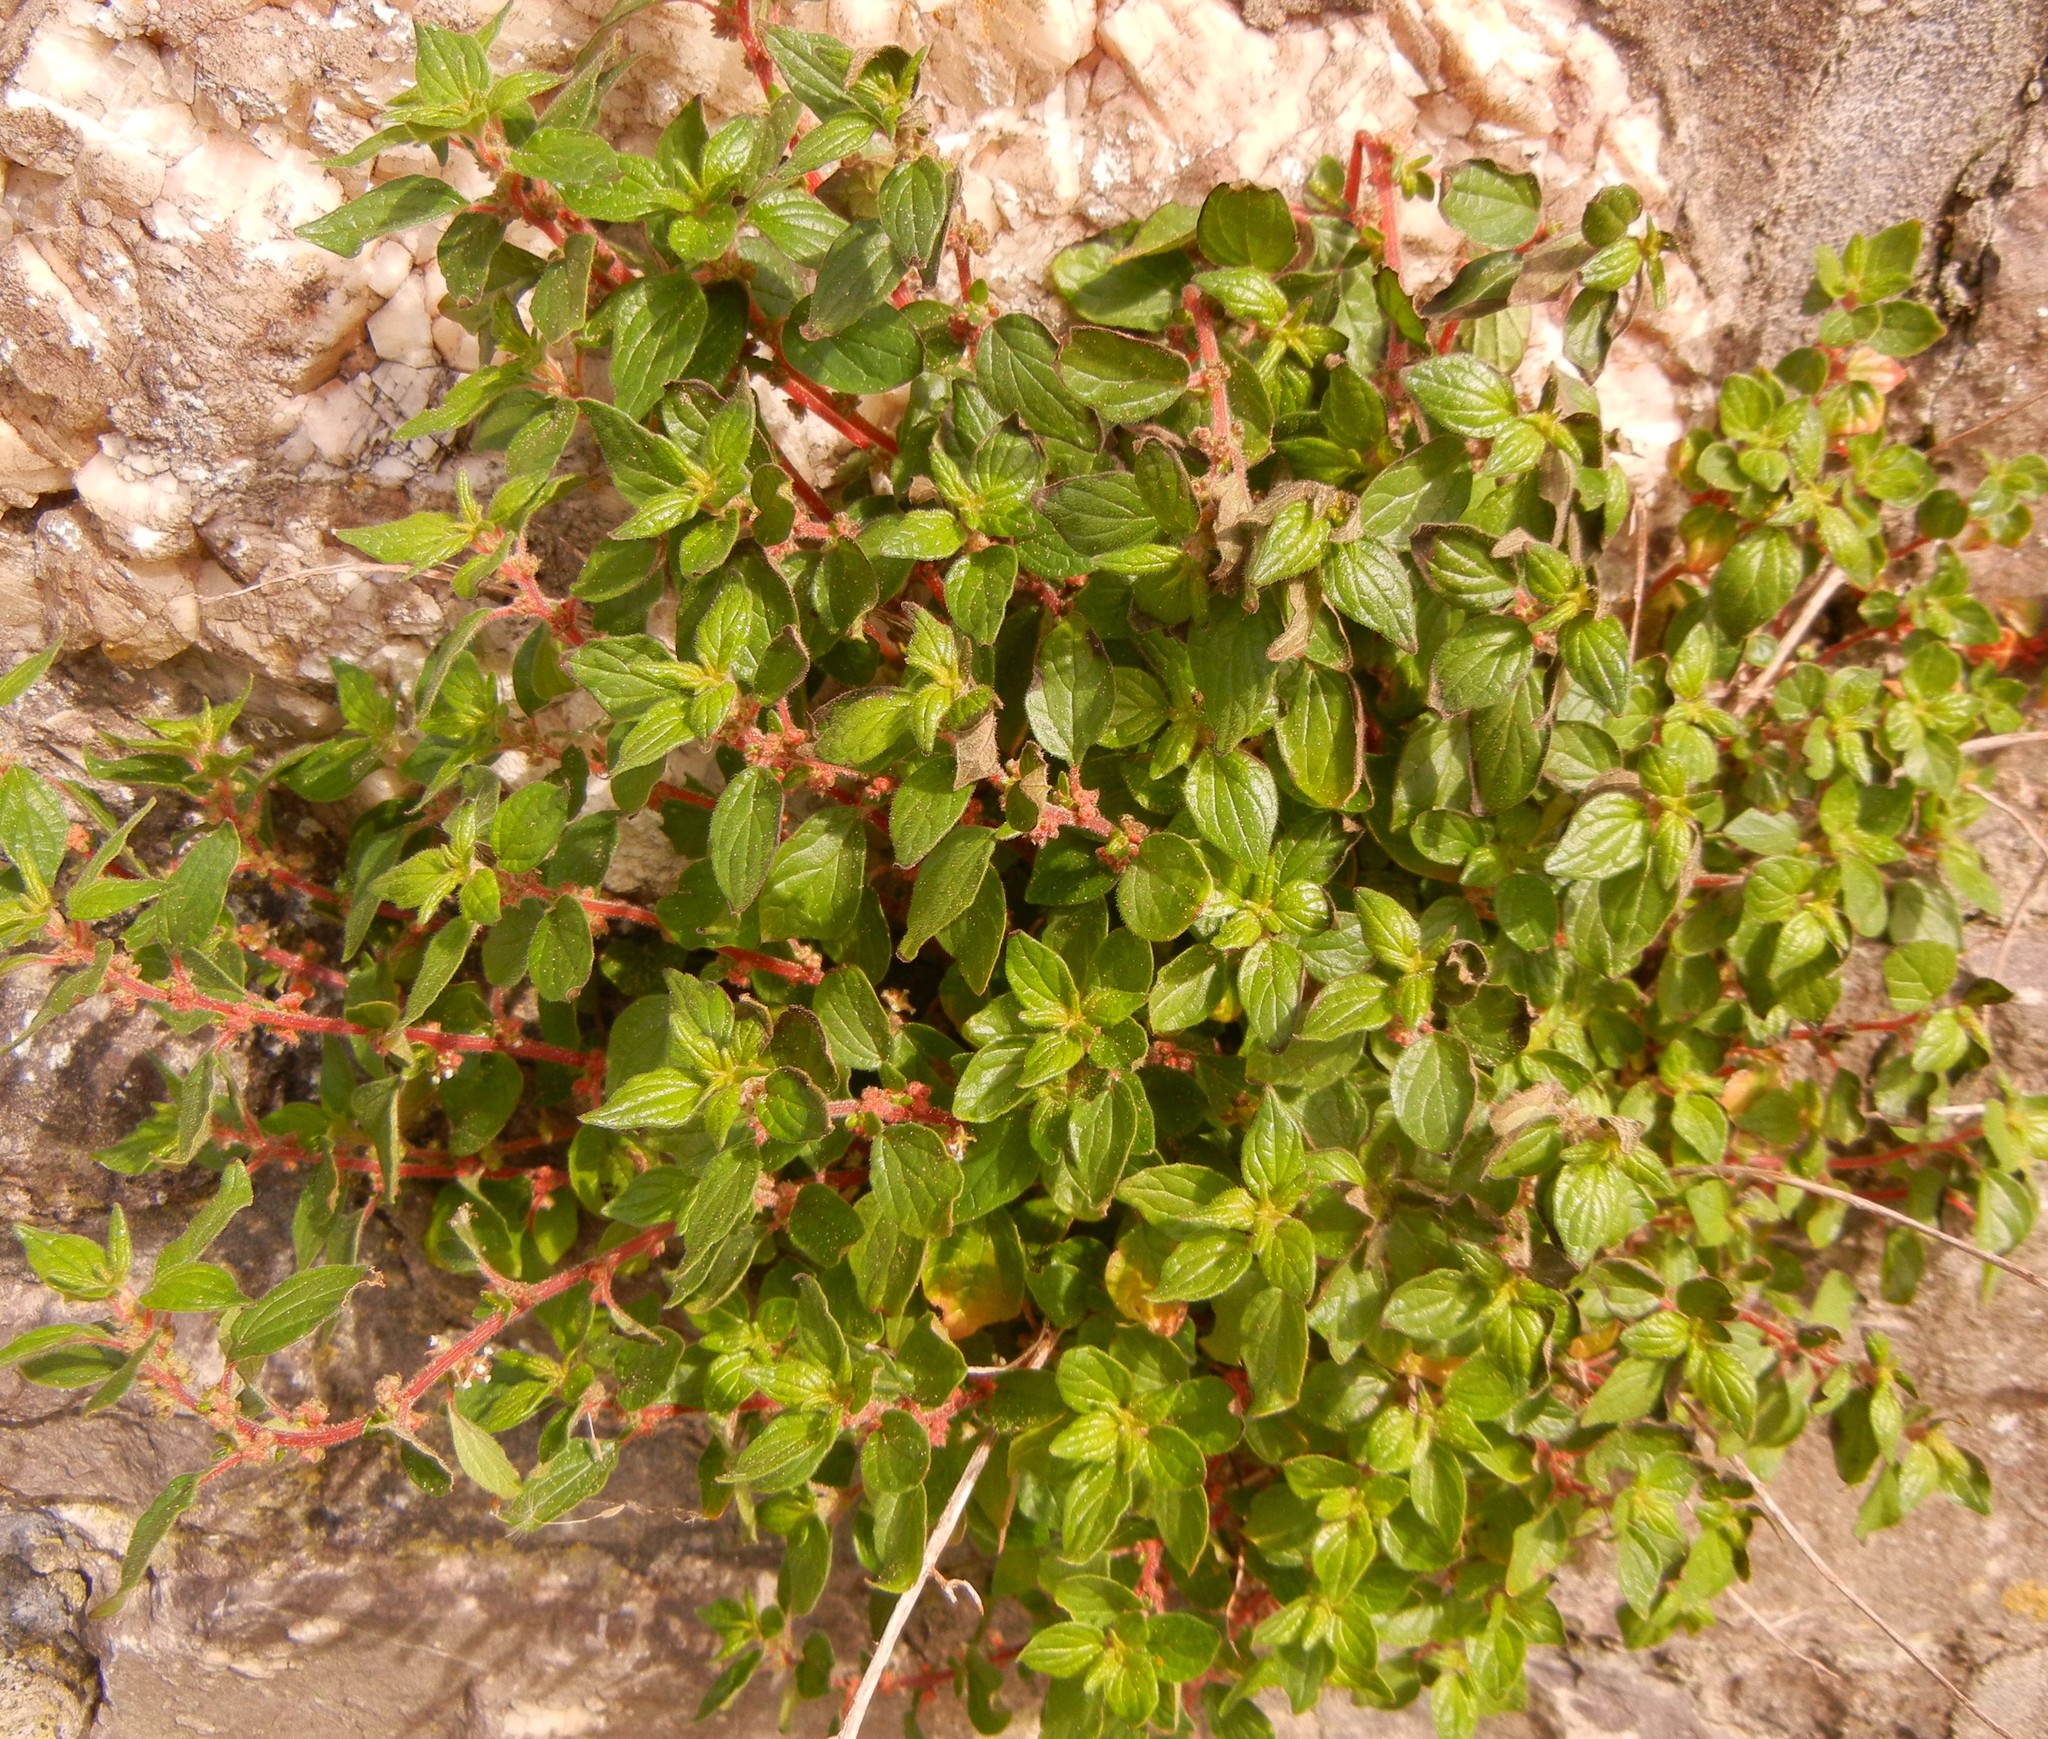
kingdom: Plantae
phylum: Tracheophyta
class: Magnoliopsida
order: Rosales
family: Urticaceae
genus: Parietaria
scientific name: Parietaria judaica
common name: Pellitory-of-the-wall
